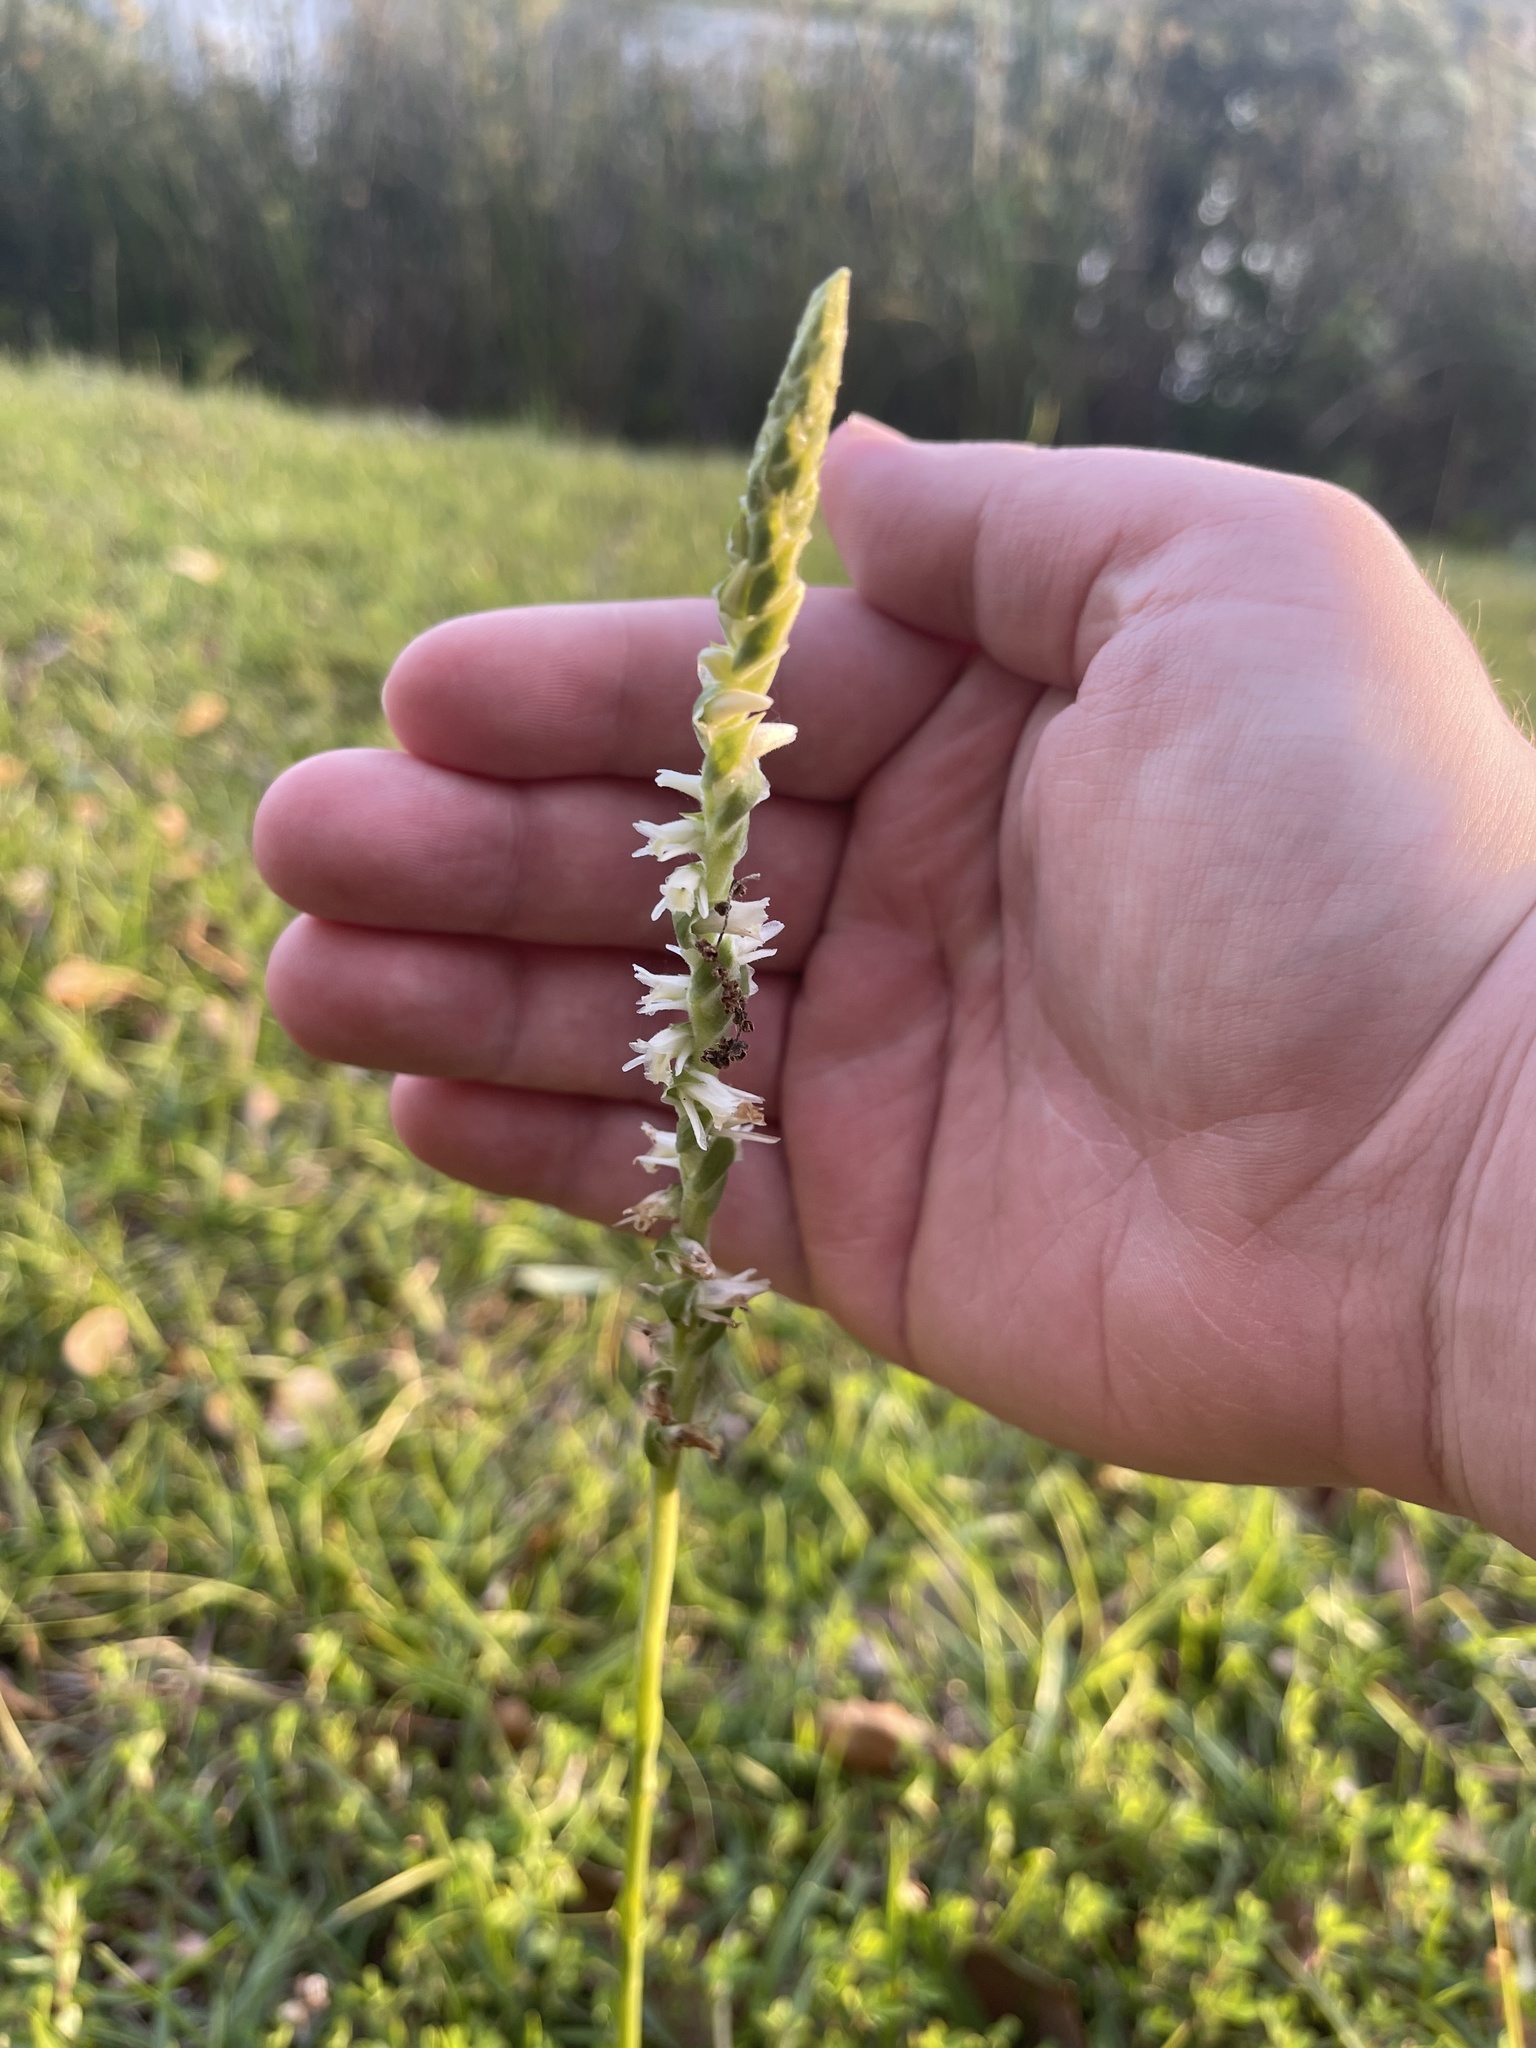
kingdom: Plantae
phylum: Tracheophyta
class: Liliopsida
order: Asparagales
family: Orchidaceae
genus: Spiranthes
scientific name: Spiranthes vernalis
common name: Spring ladies'-tresses
